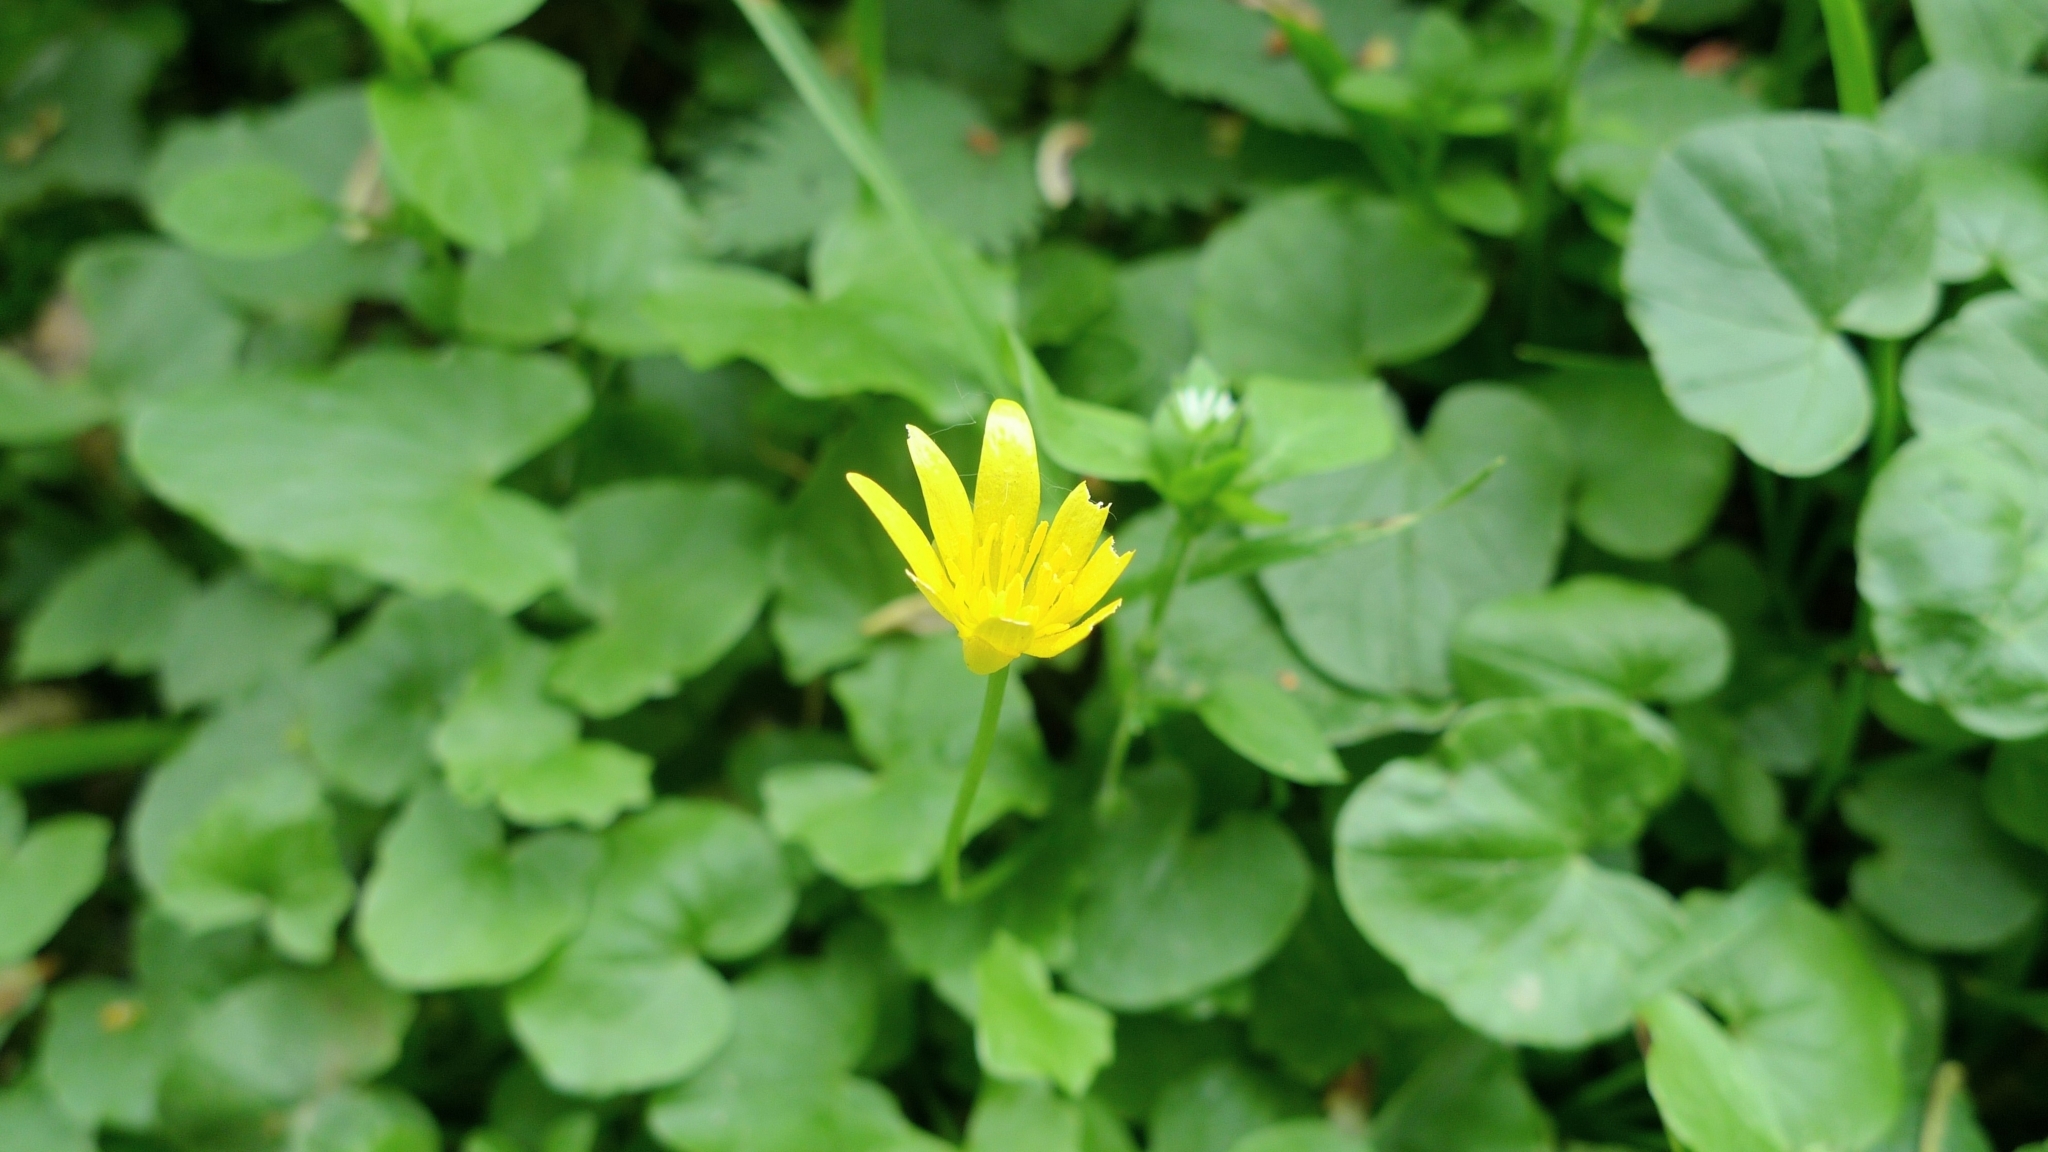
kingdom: Plantae
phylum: Tracheophyta
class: Magnoliopsida
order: Ranunculales
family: Ranunculaceae
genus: Ficaria
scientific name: Ficaria verna
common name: Lesser celandine
